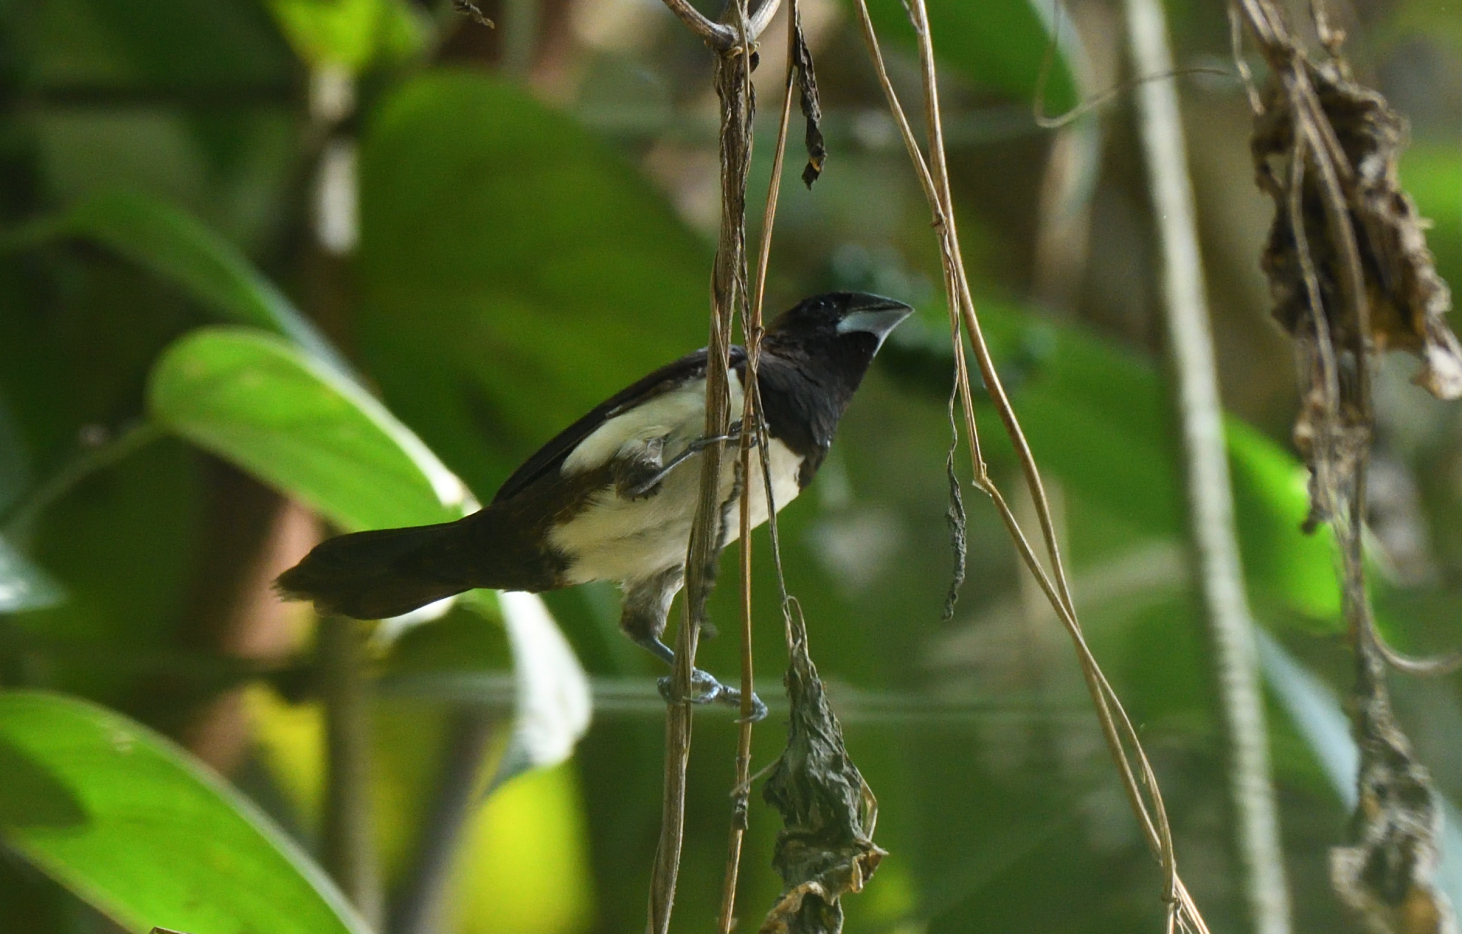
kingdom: Animalia
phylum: Chordata
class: Aves
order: Passeriformes
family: Estrildidae
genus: Lonchura
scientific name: Lonchura striata
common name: White-rumped munia
